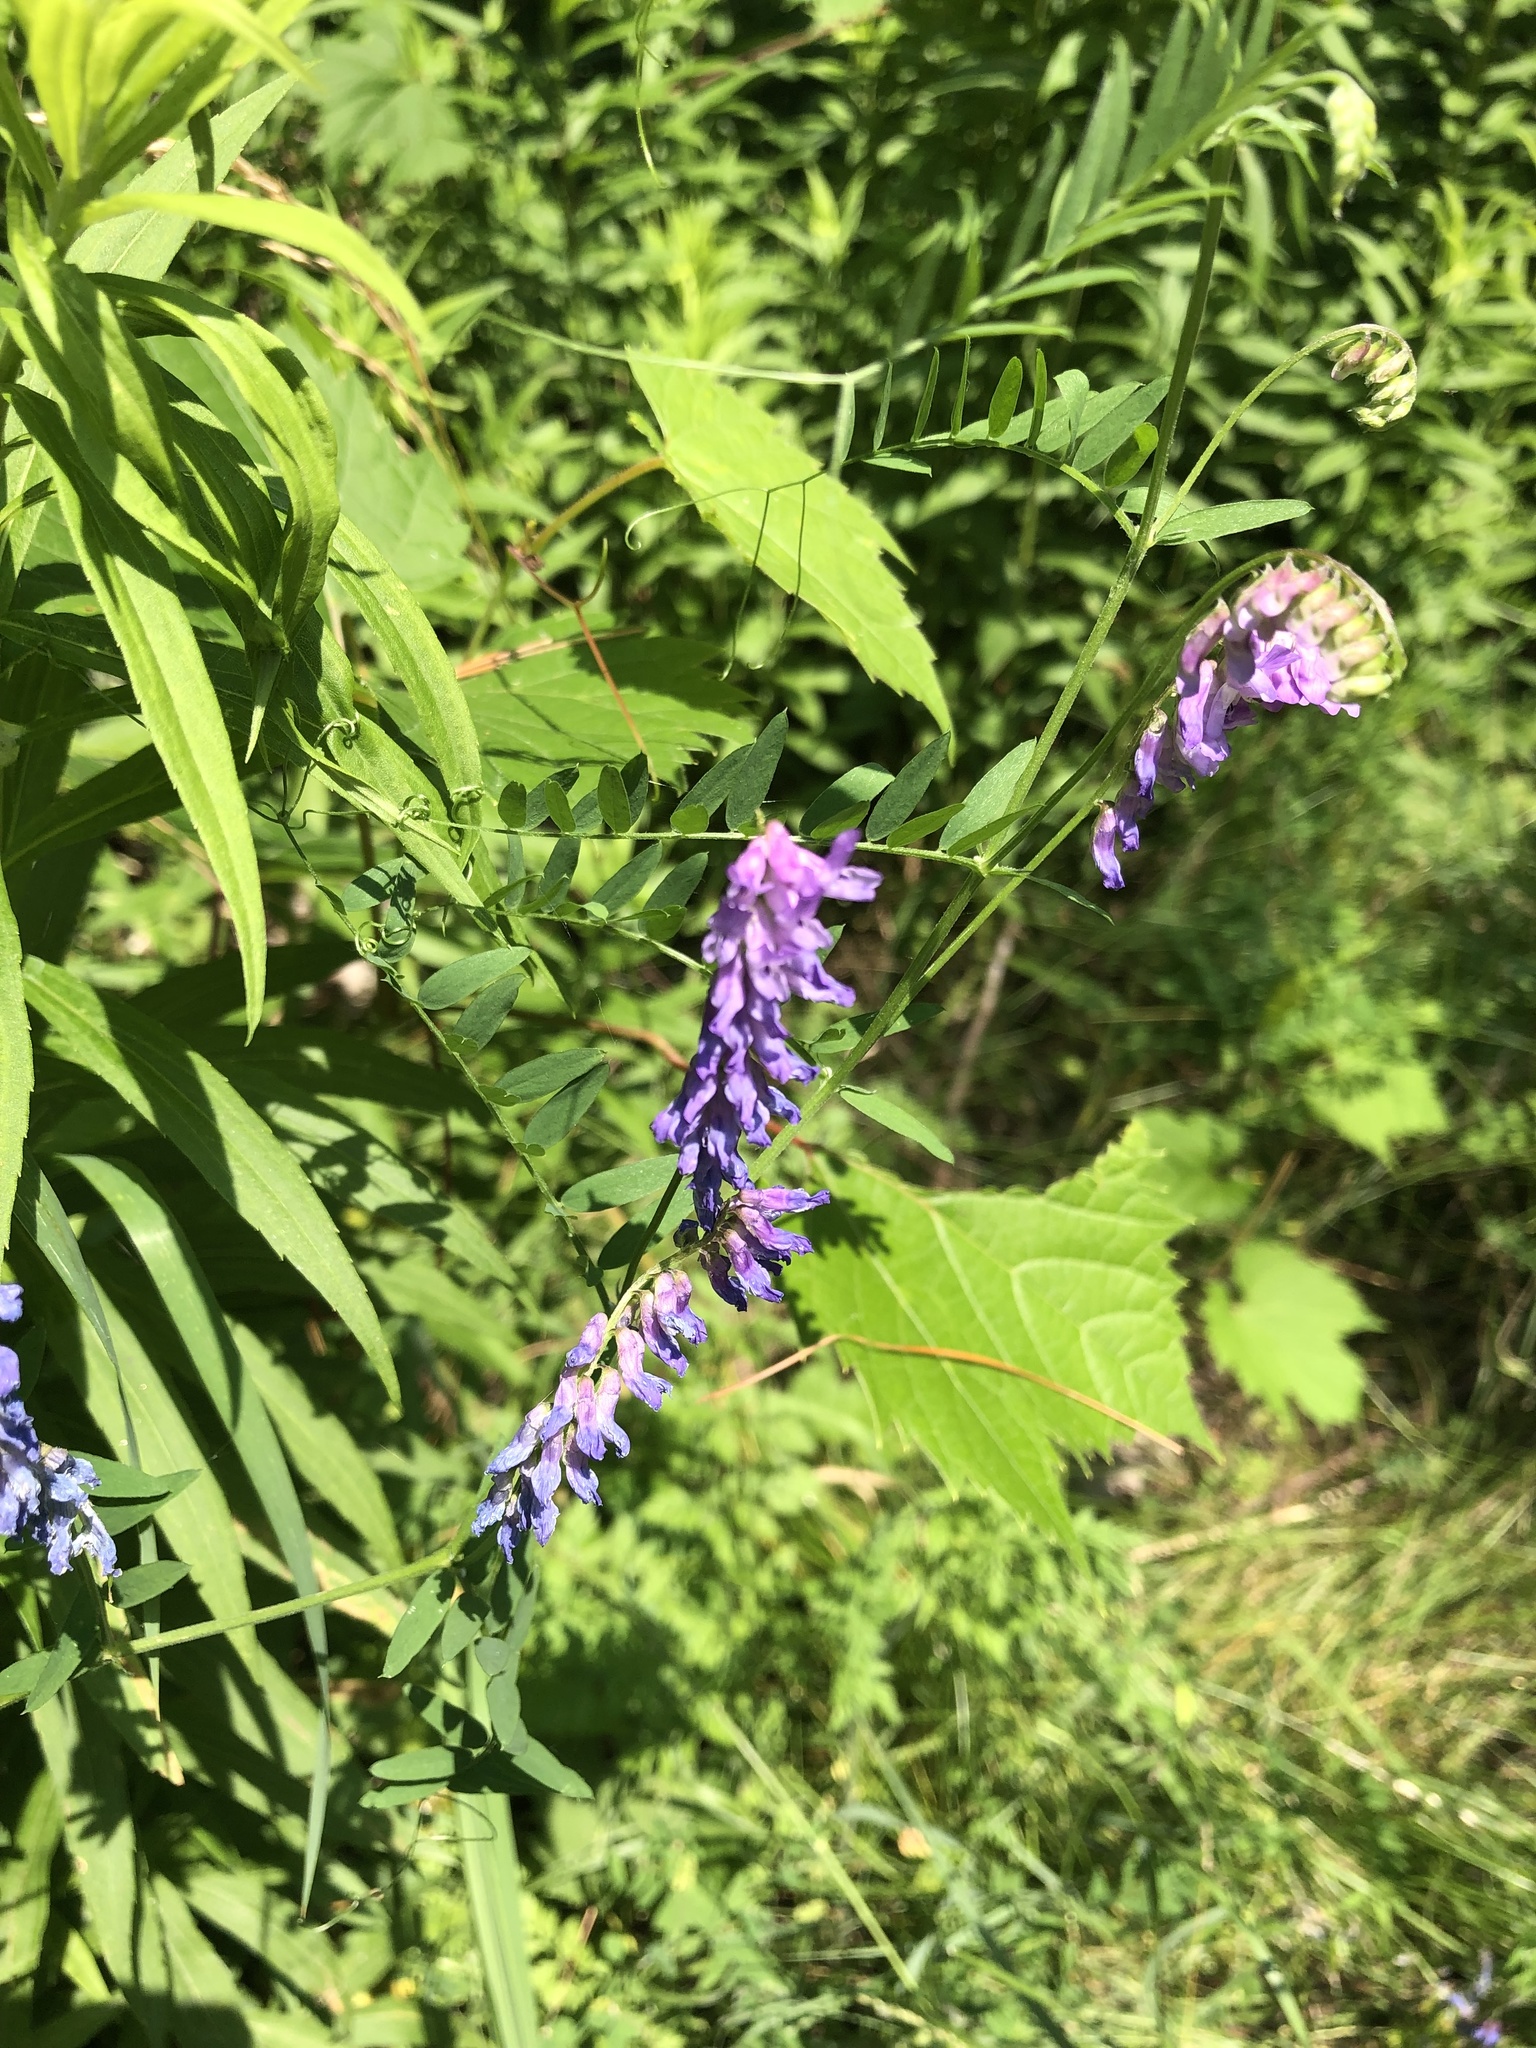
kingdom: Plantae
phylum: Tracheophyta
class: Magnoliopsida
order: Fabales
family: Fabaceae
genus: Vicia
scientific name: Vicia cracca
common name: Bird vetch
